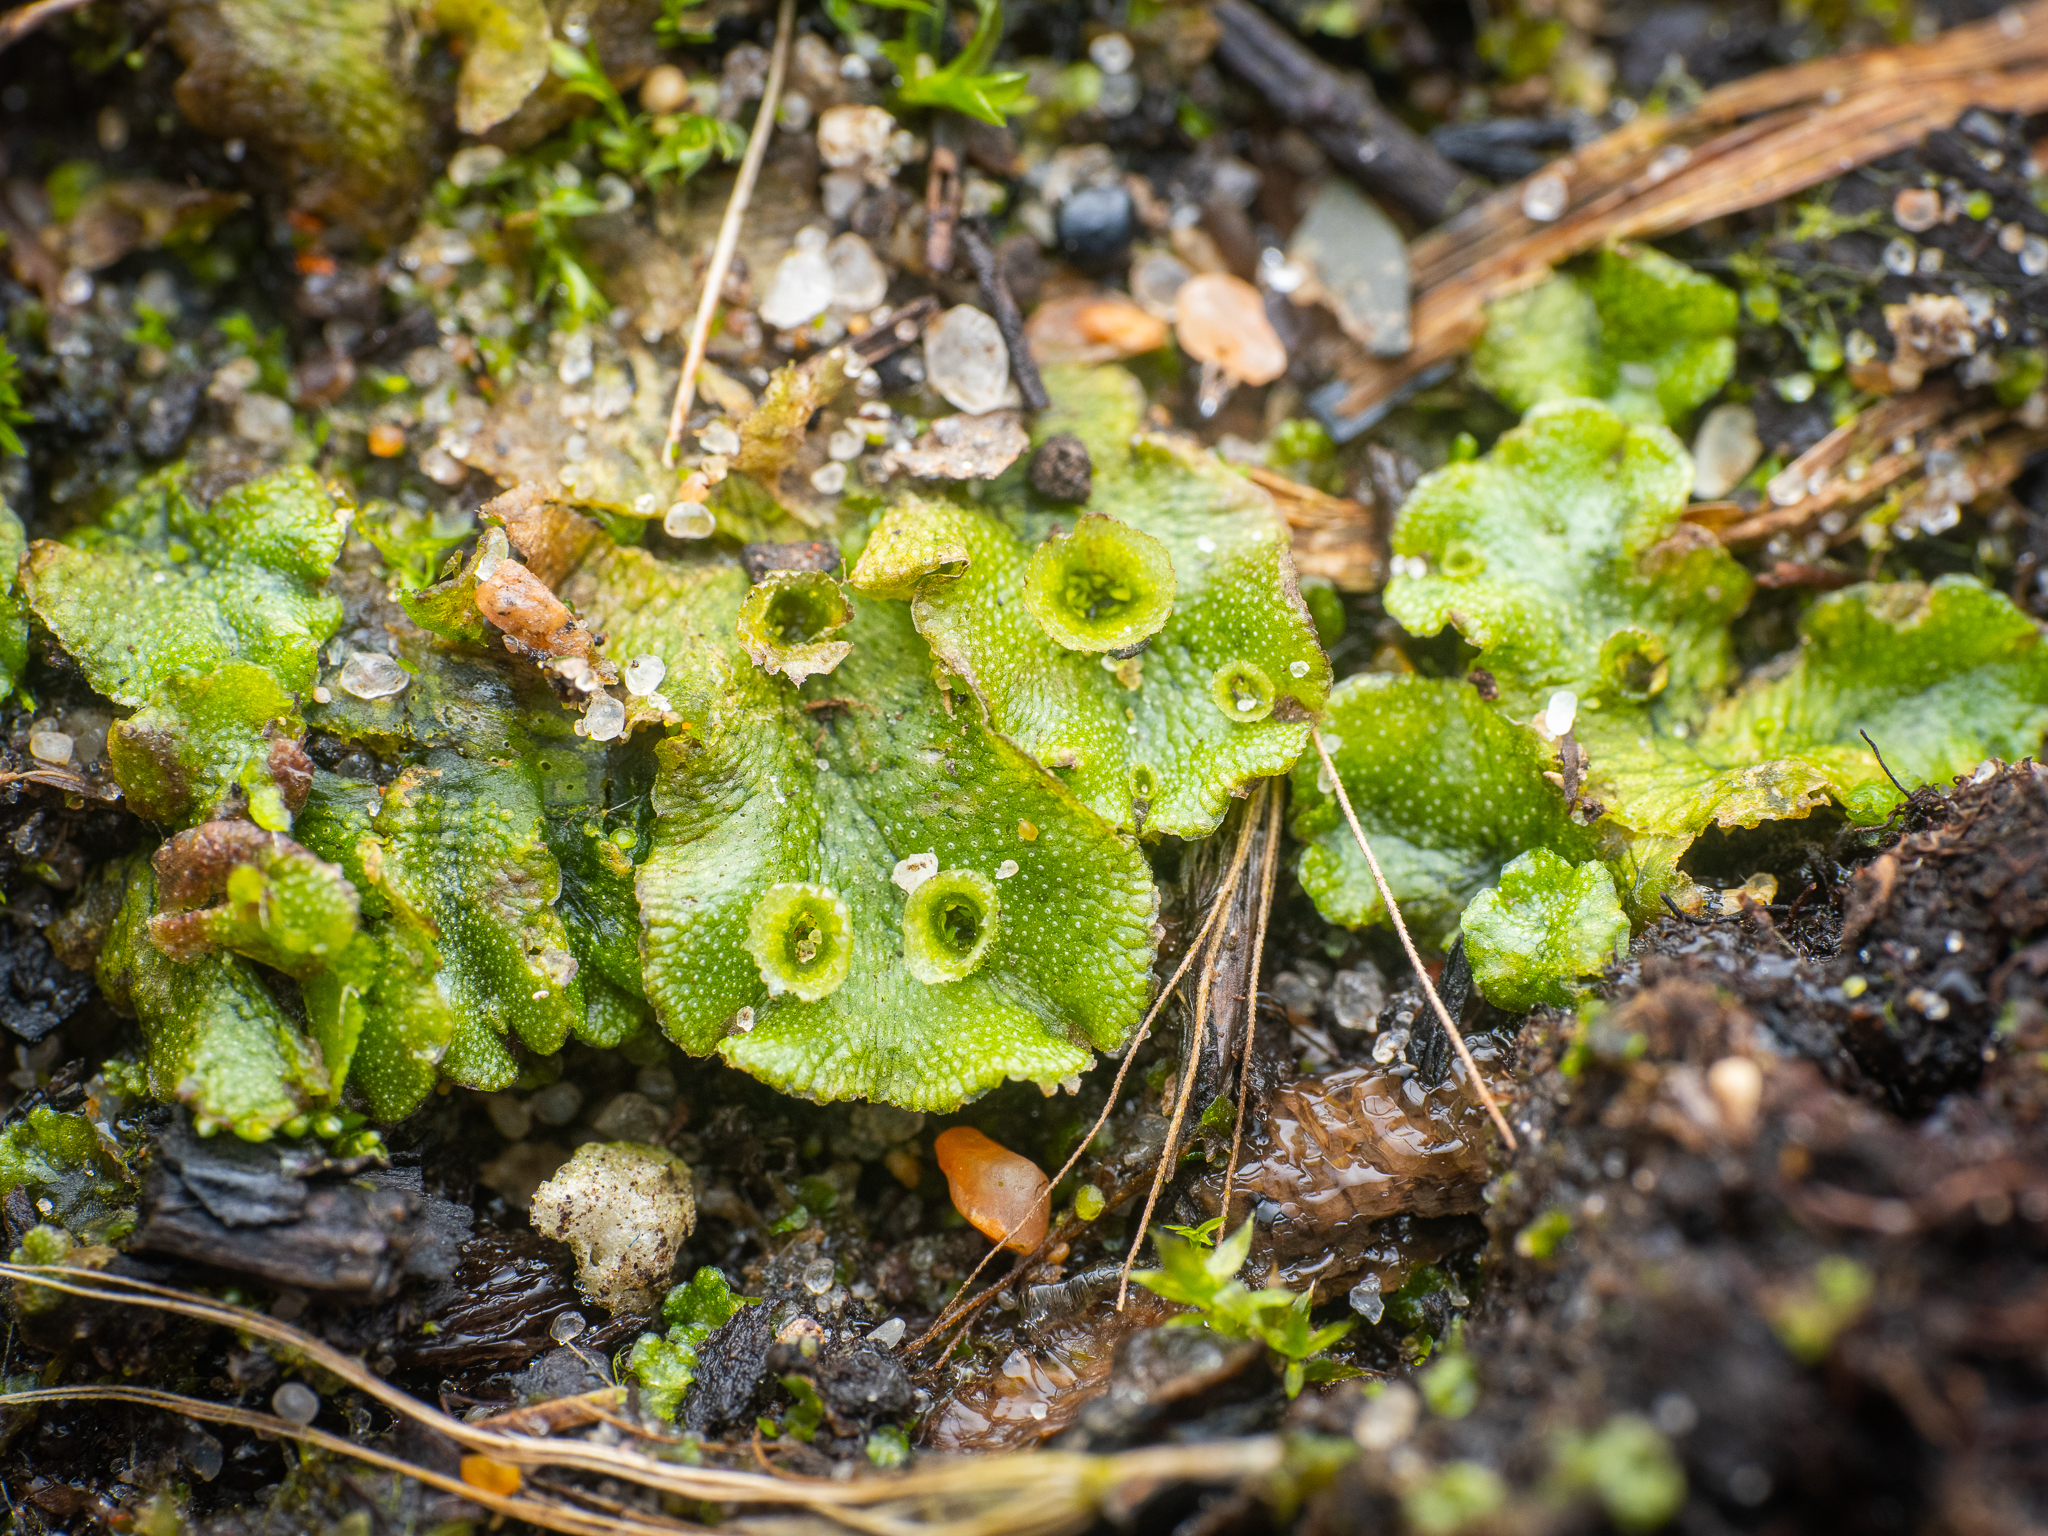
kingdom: Plantae
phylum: Marchantiophyta
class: Marchantiopsida
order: Marchantiales
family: Marchantiaceae
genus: Marchantia
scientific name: Marchantia polymorpha
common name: Common liverwort
